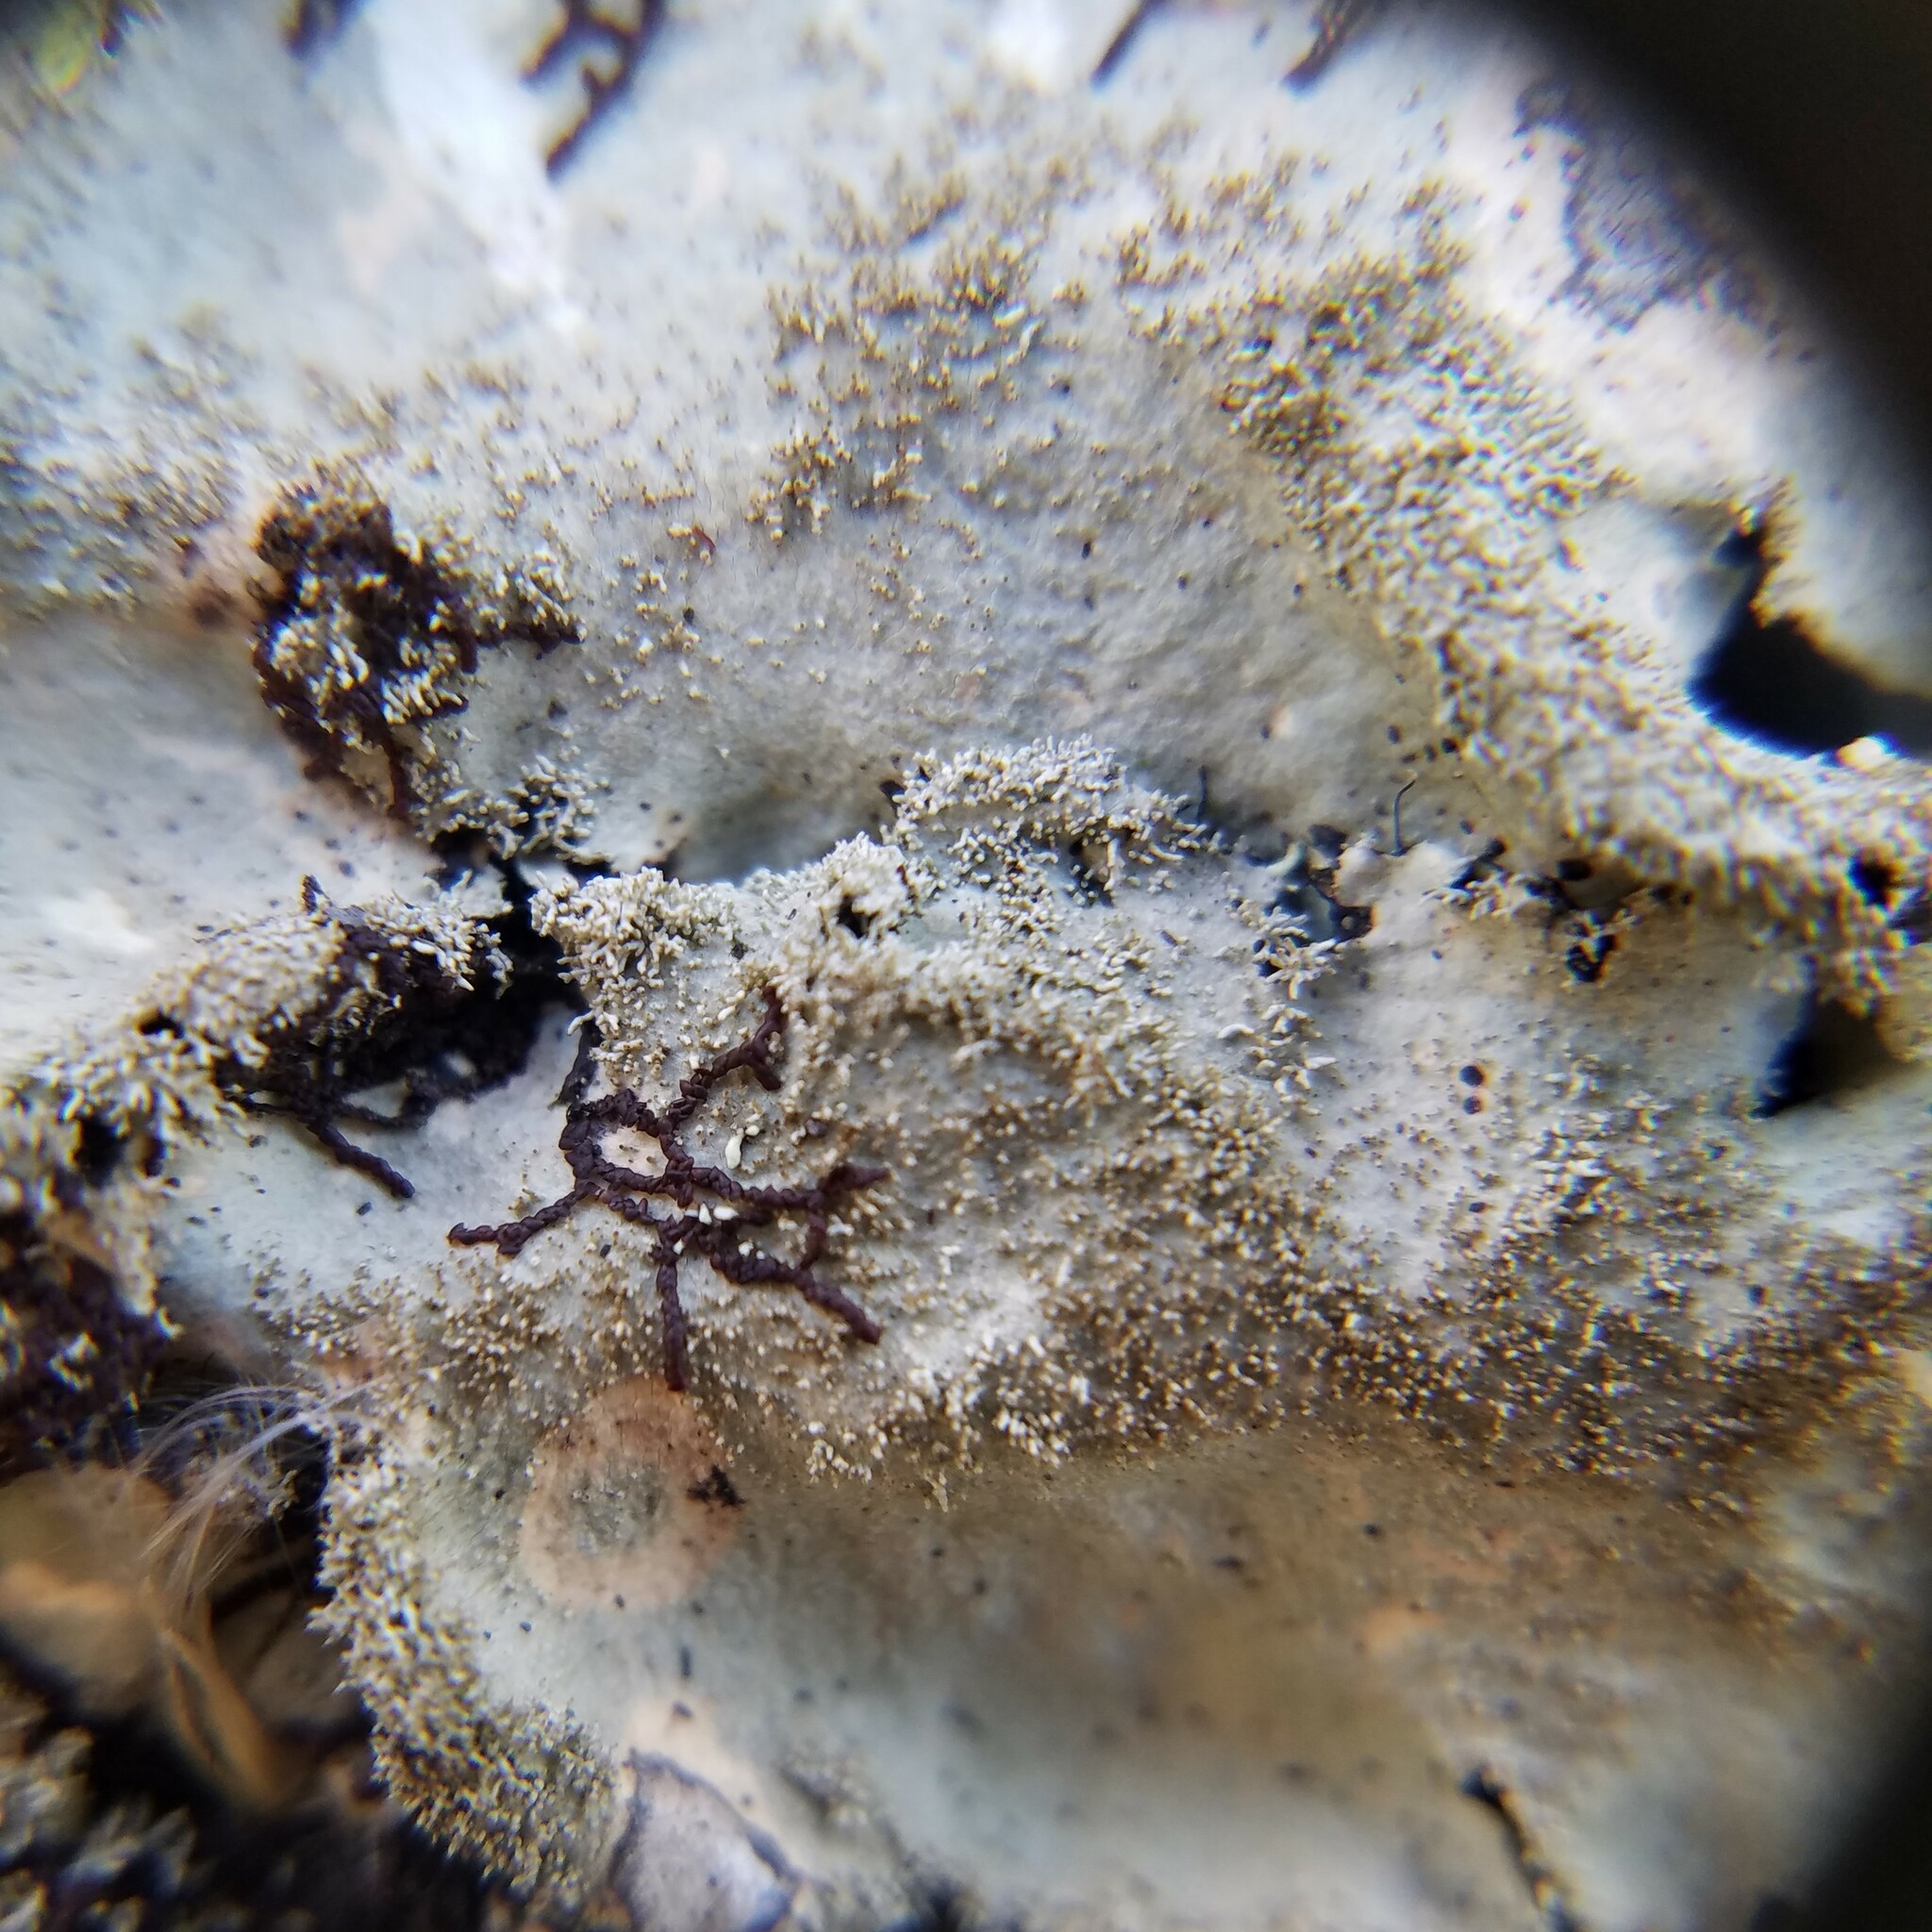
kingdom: Fungi
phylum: Ascomycota
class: Lecanoromycetes
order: Lecanorales
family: Parmeliaceae
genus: Parmotrema
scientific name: Parmotrema ultralucens
